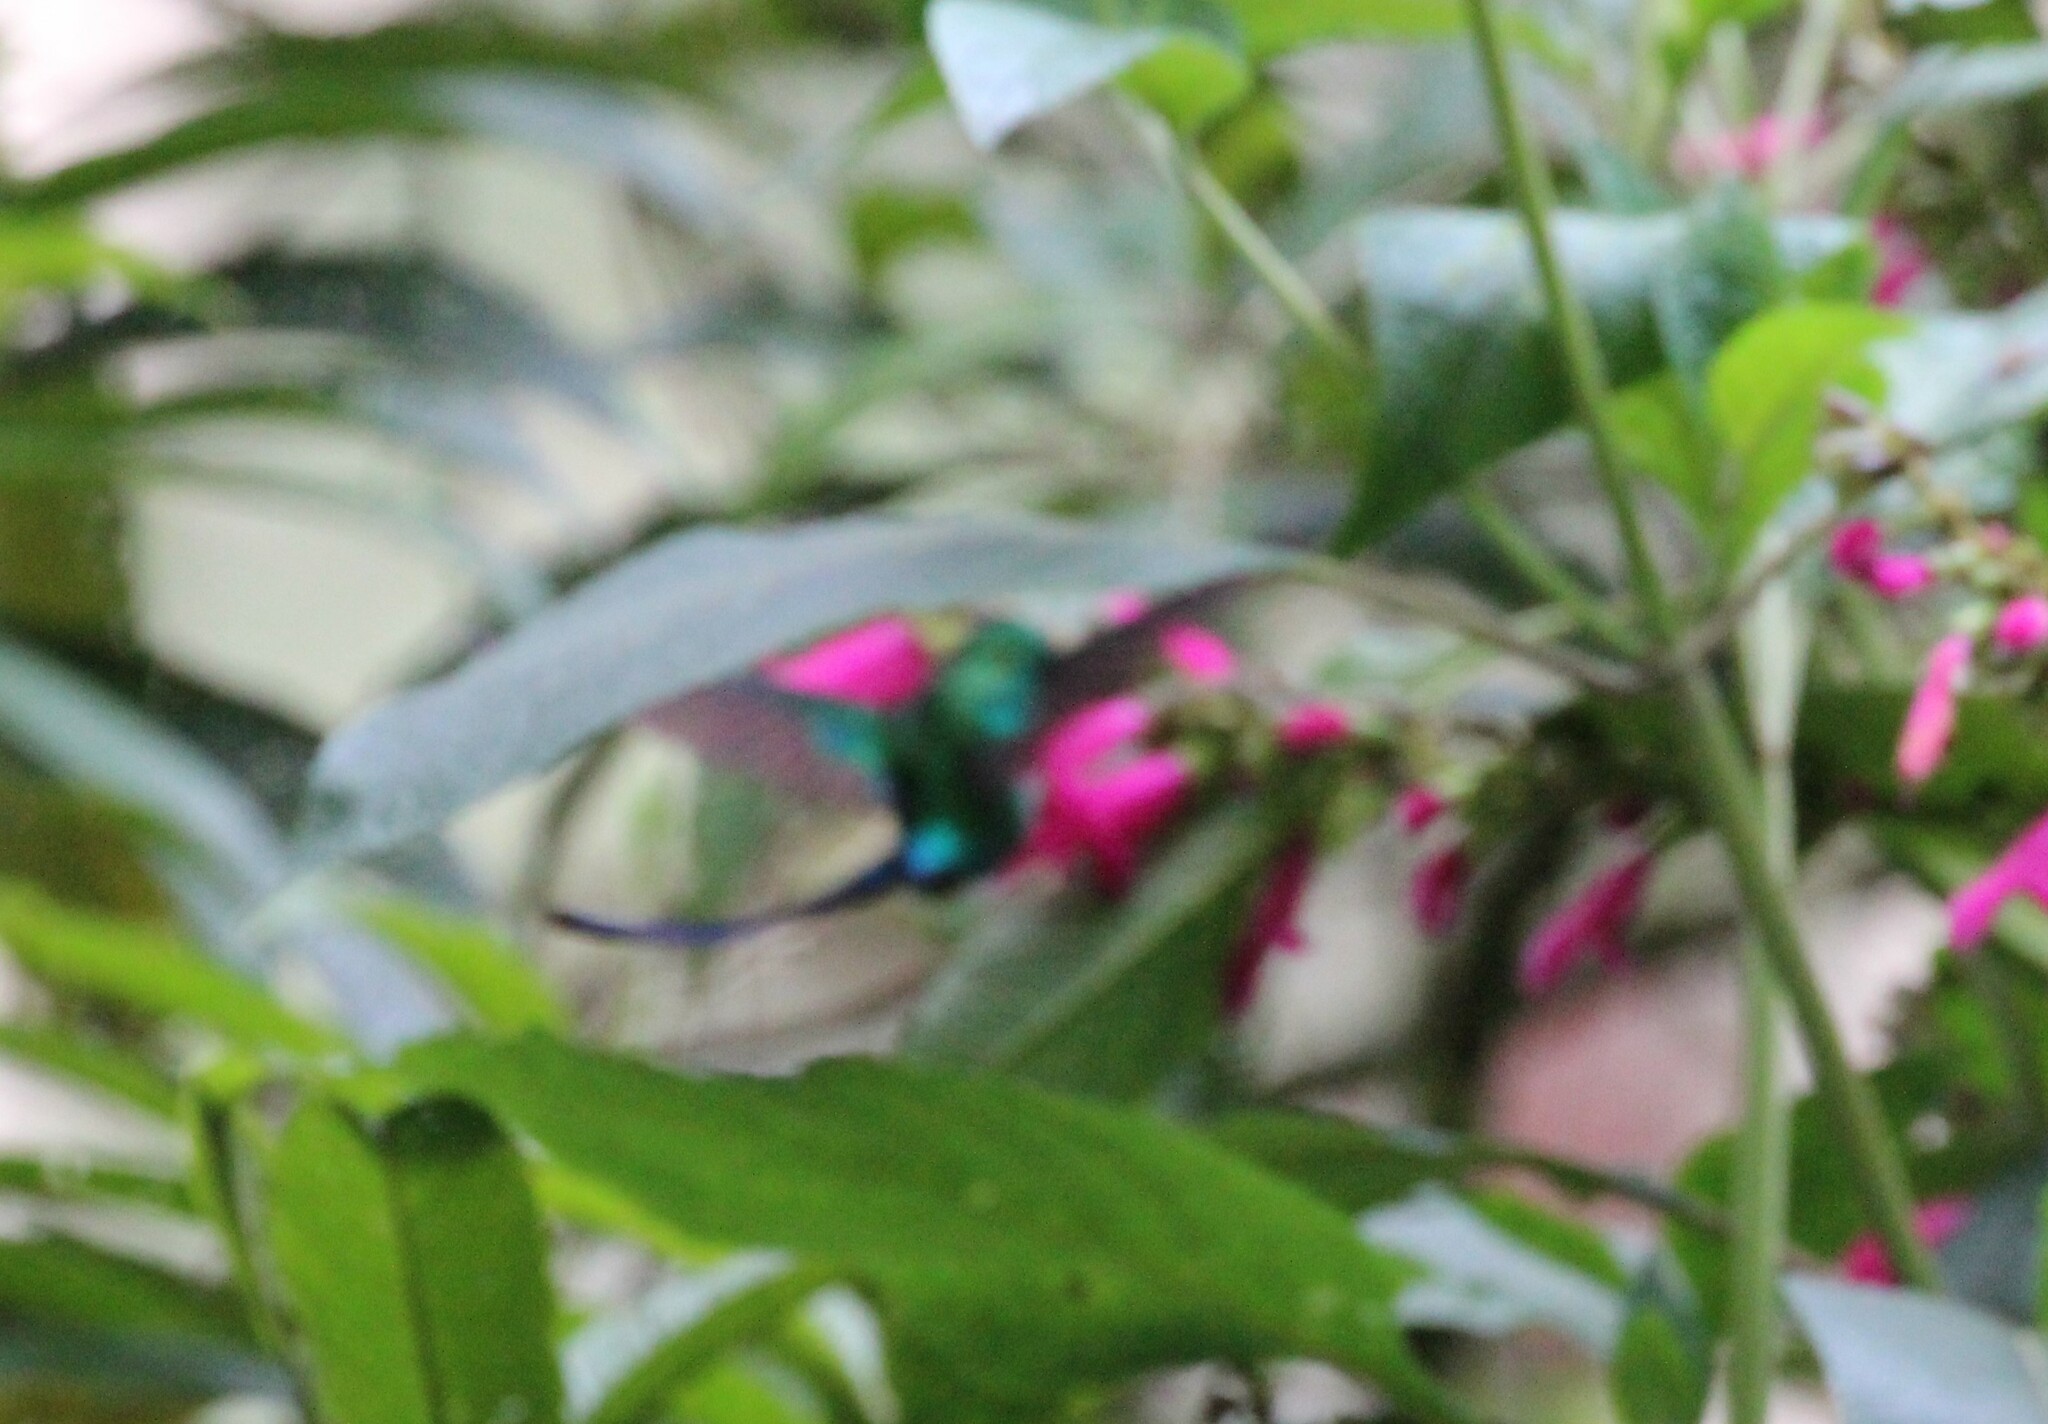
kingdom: Animalia
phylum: Chordata
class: Aves
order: Apodiformes
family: Trochilidae
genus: Aglaiocercus
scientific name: Aglaiocercus kingii
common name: Long-tailed sylph
